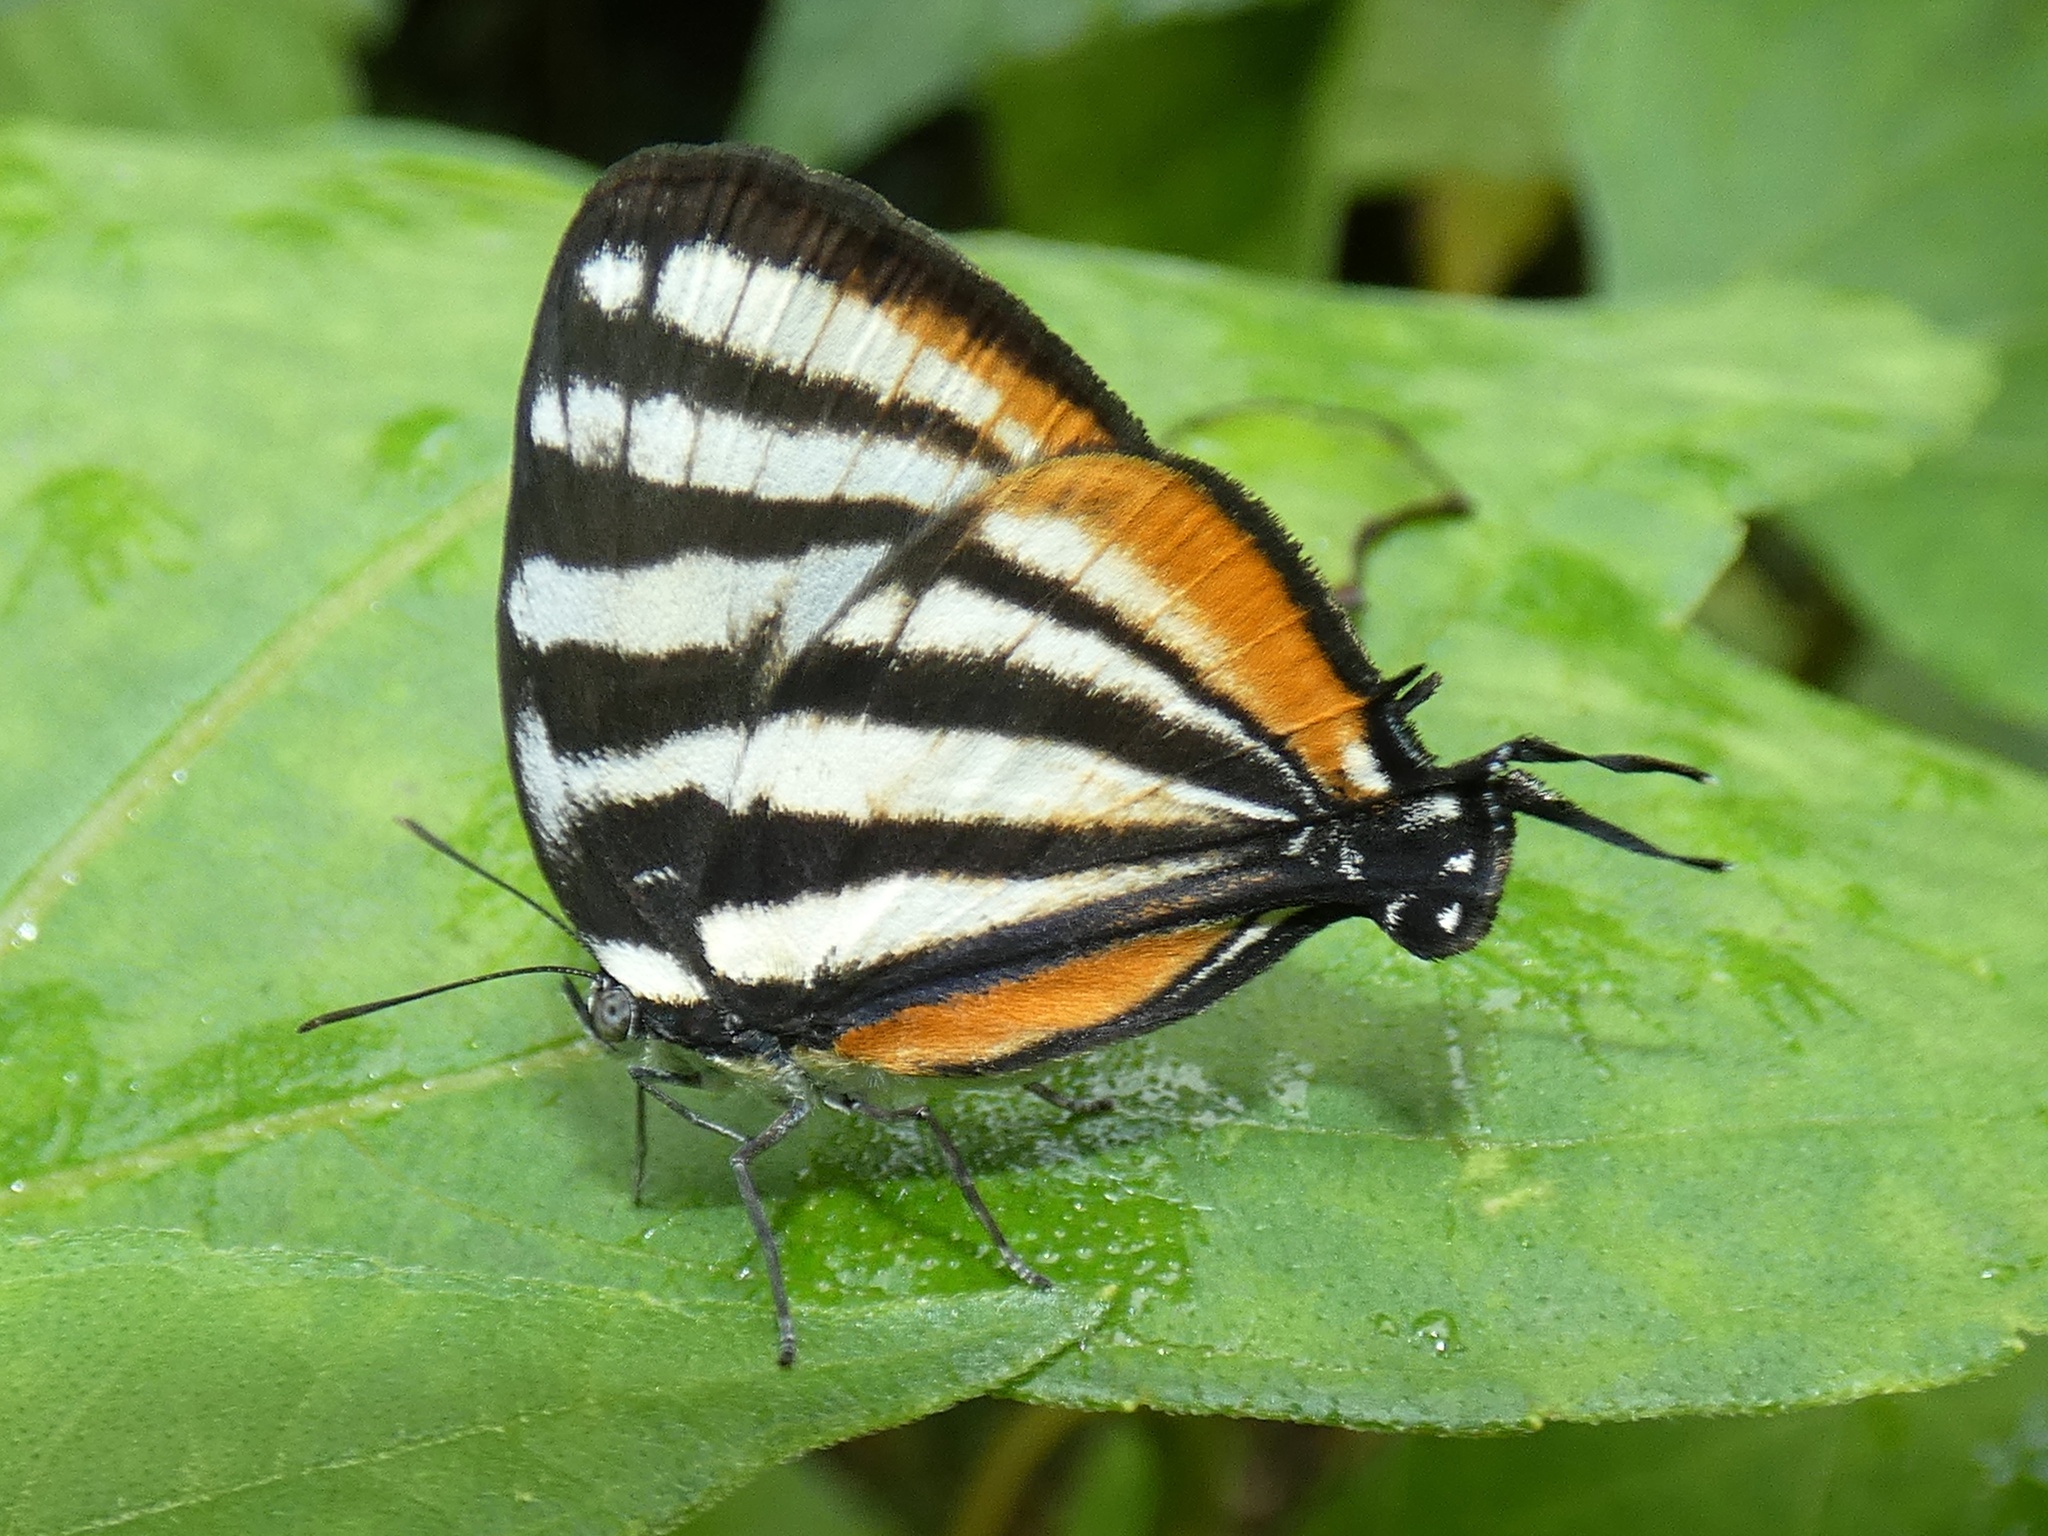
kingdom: Animalia
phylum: Arthropoda
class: Insecta
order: Lepidoptera
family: Lycaenidae
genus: Arawacus
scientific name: Arawacus lincoides
